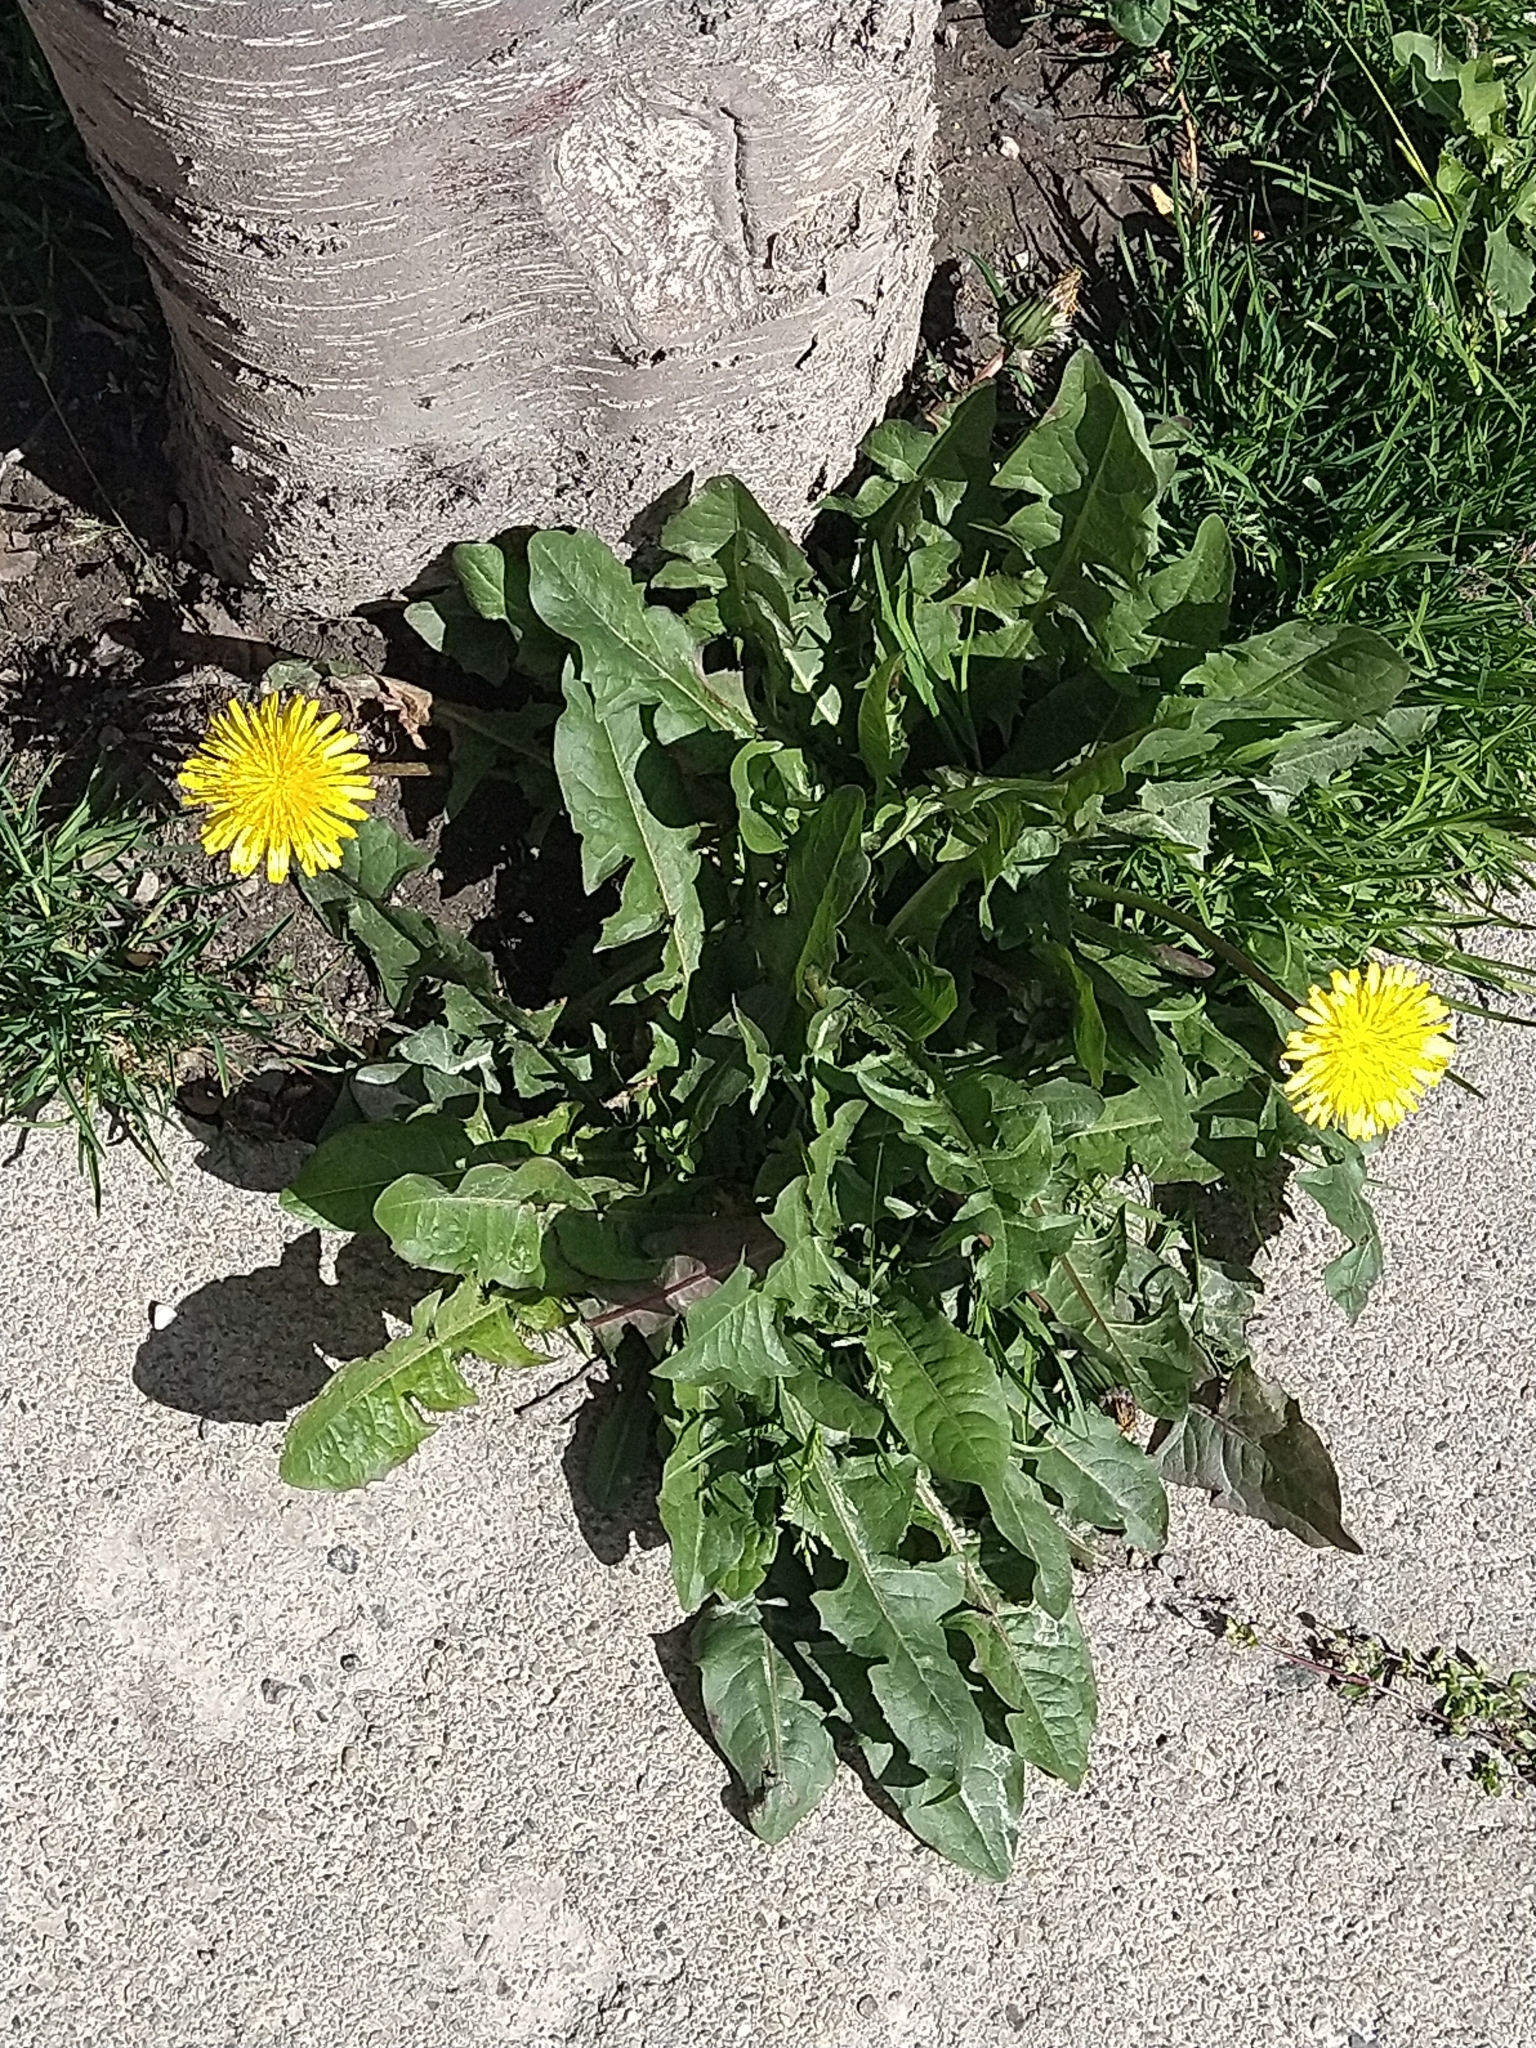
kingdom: Plantae
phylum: Tracheophyta
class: Magnoliopsida
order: Asterales
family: Asteraceae
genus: Taraxacum
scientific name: Taraxacum officinale
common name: Common dandelion
